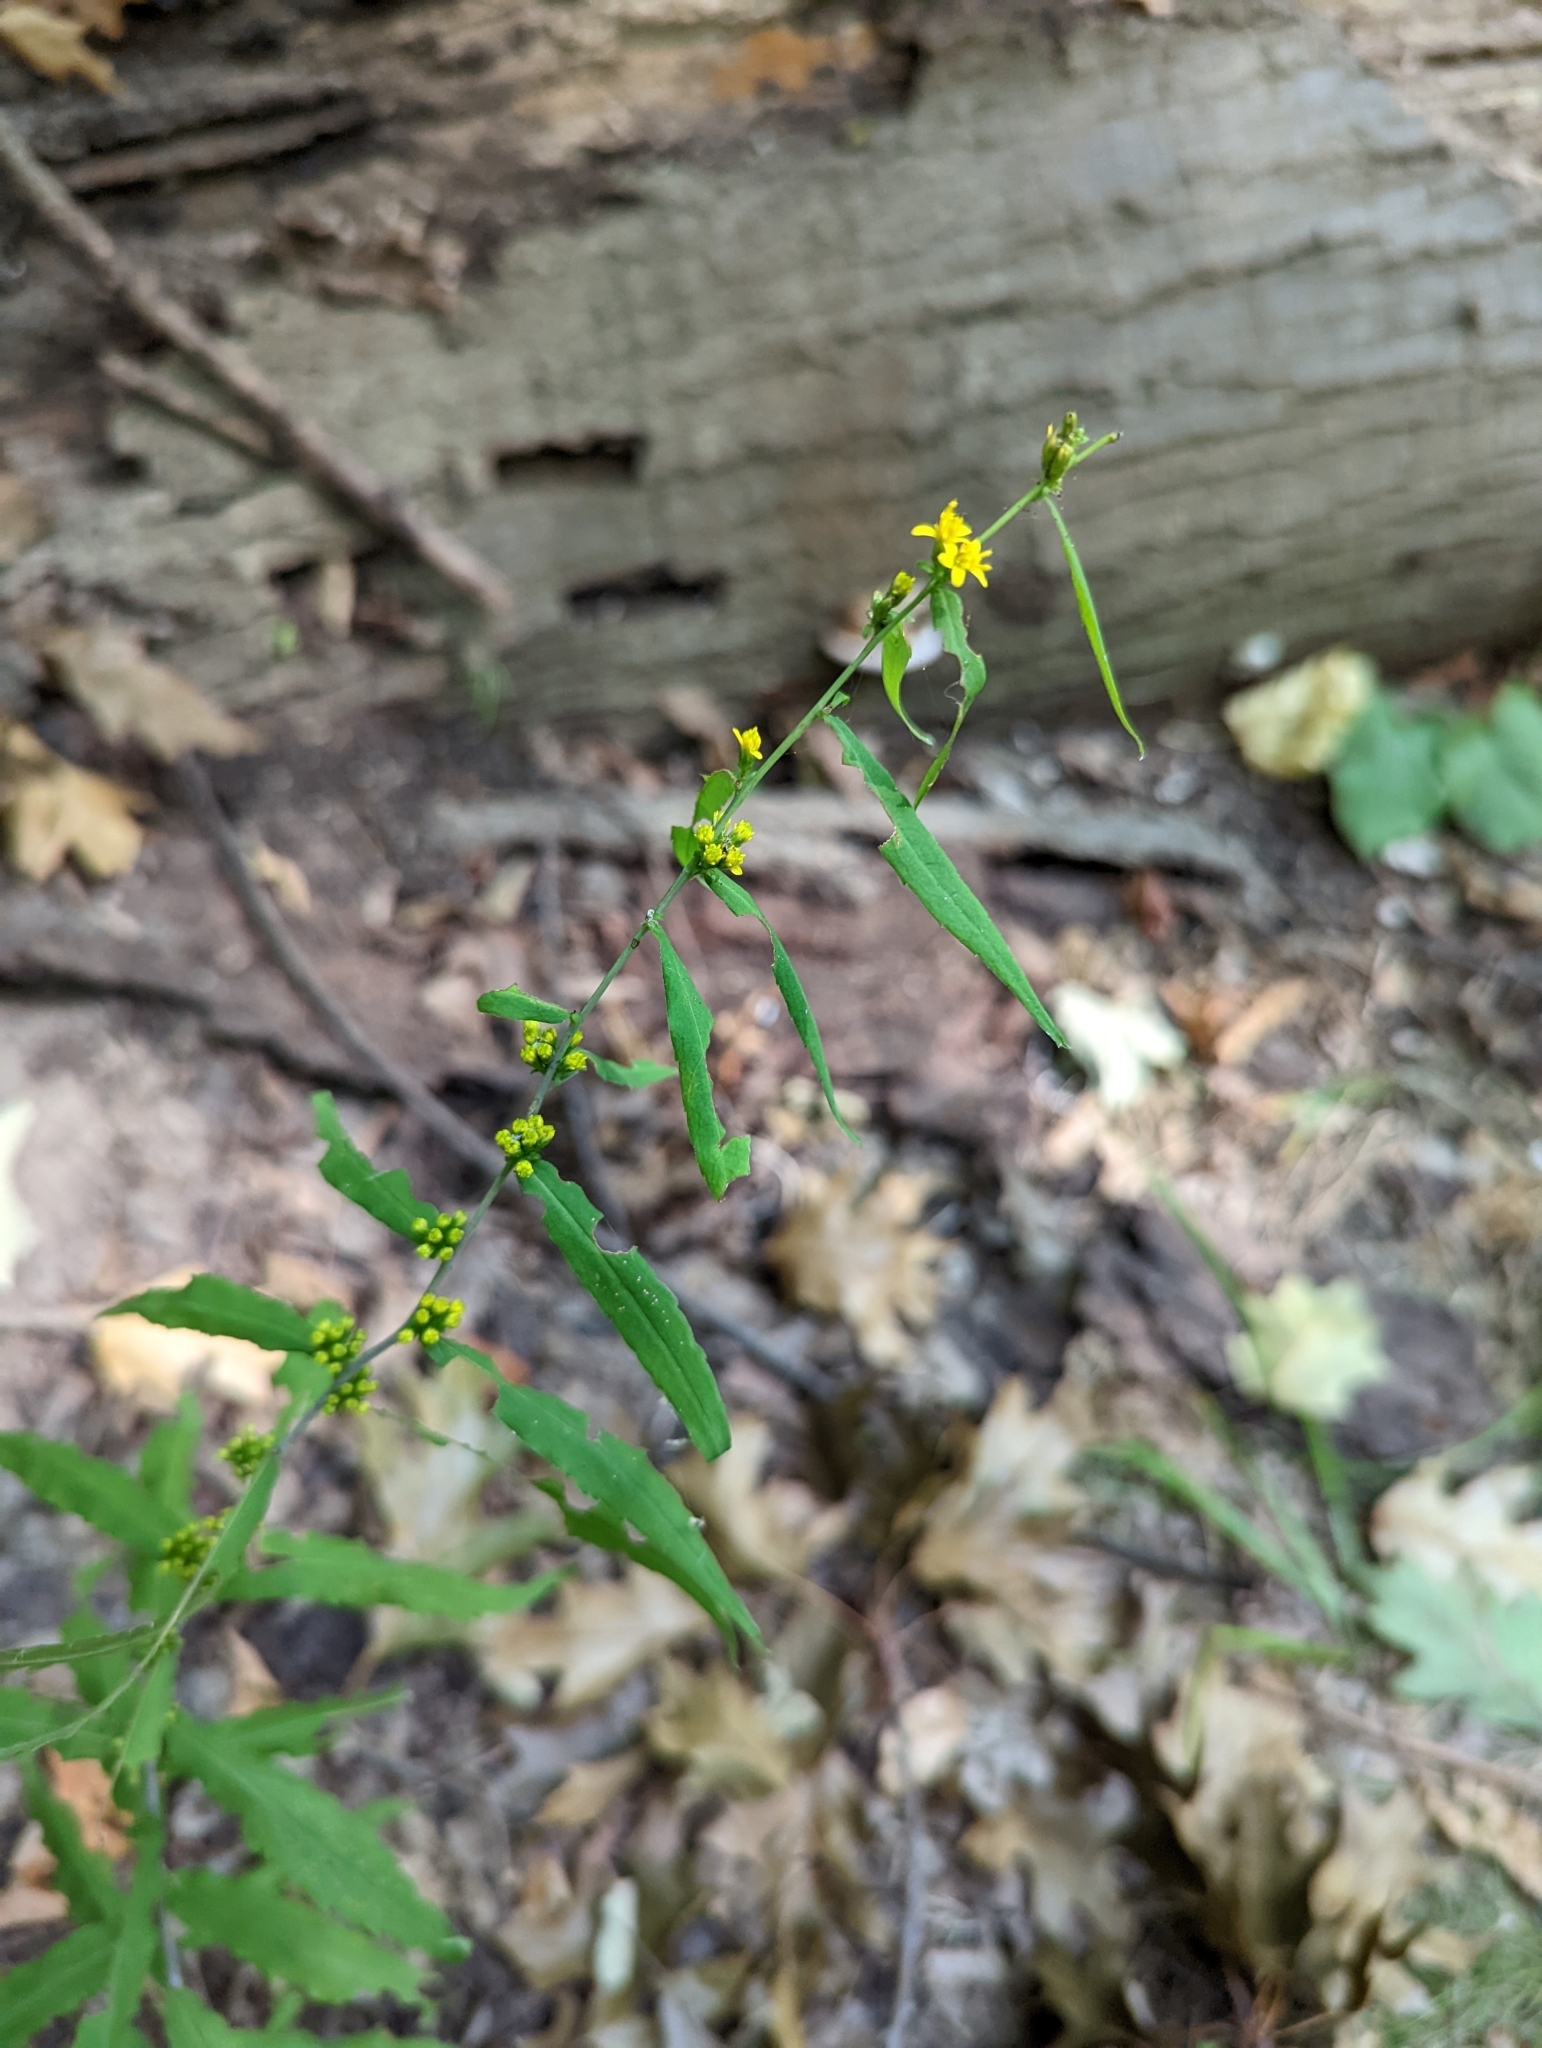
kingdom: Plantae
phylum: Tracheophyta
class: Magnoliopsida
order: Asterales
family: Asteraceae
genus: Solidago
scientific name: Solidago caesia
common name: Woodland goldenrod
